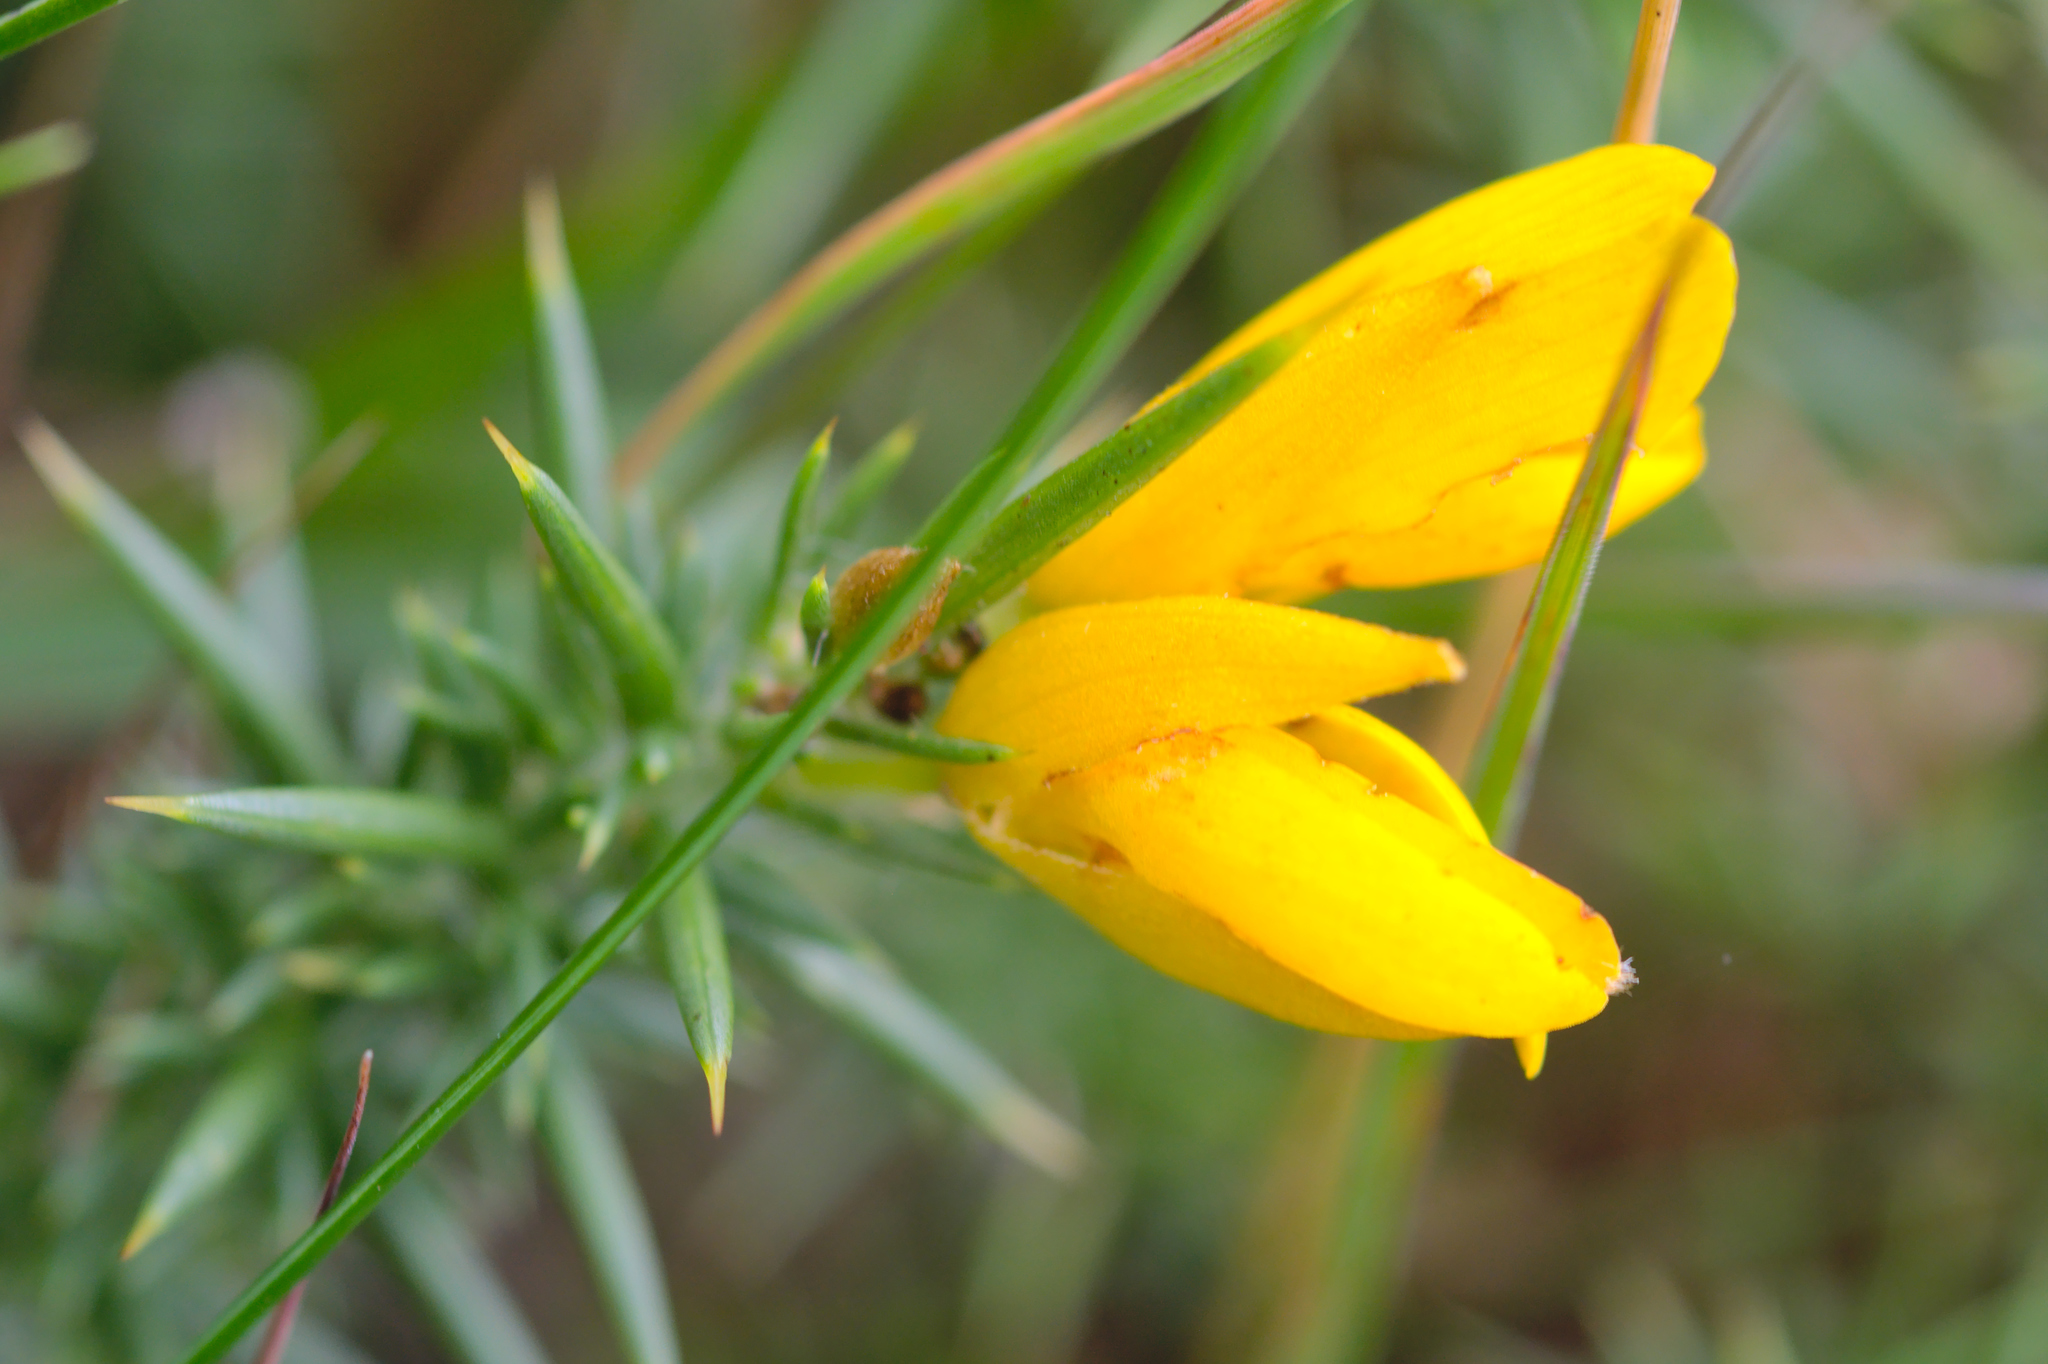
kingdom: Plantae
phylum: Tracheophyta
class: Magnoliopsida
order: Fabales
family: Fabaceae
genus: Ulex
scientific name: Ulex gallii
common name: Western gorse
